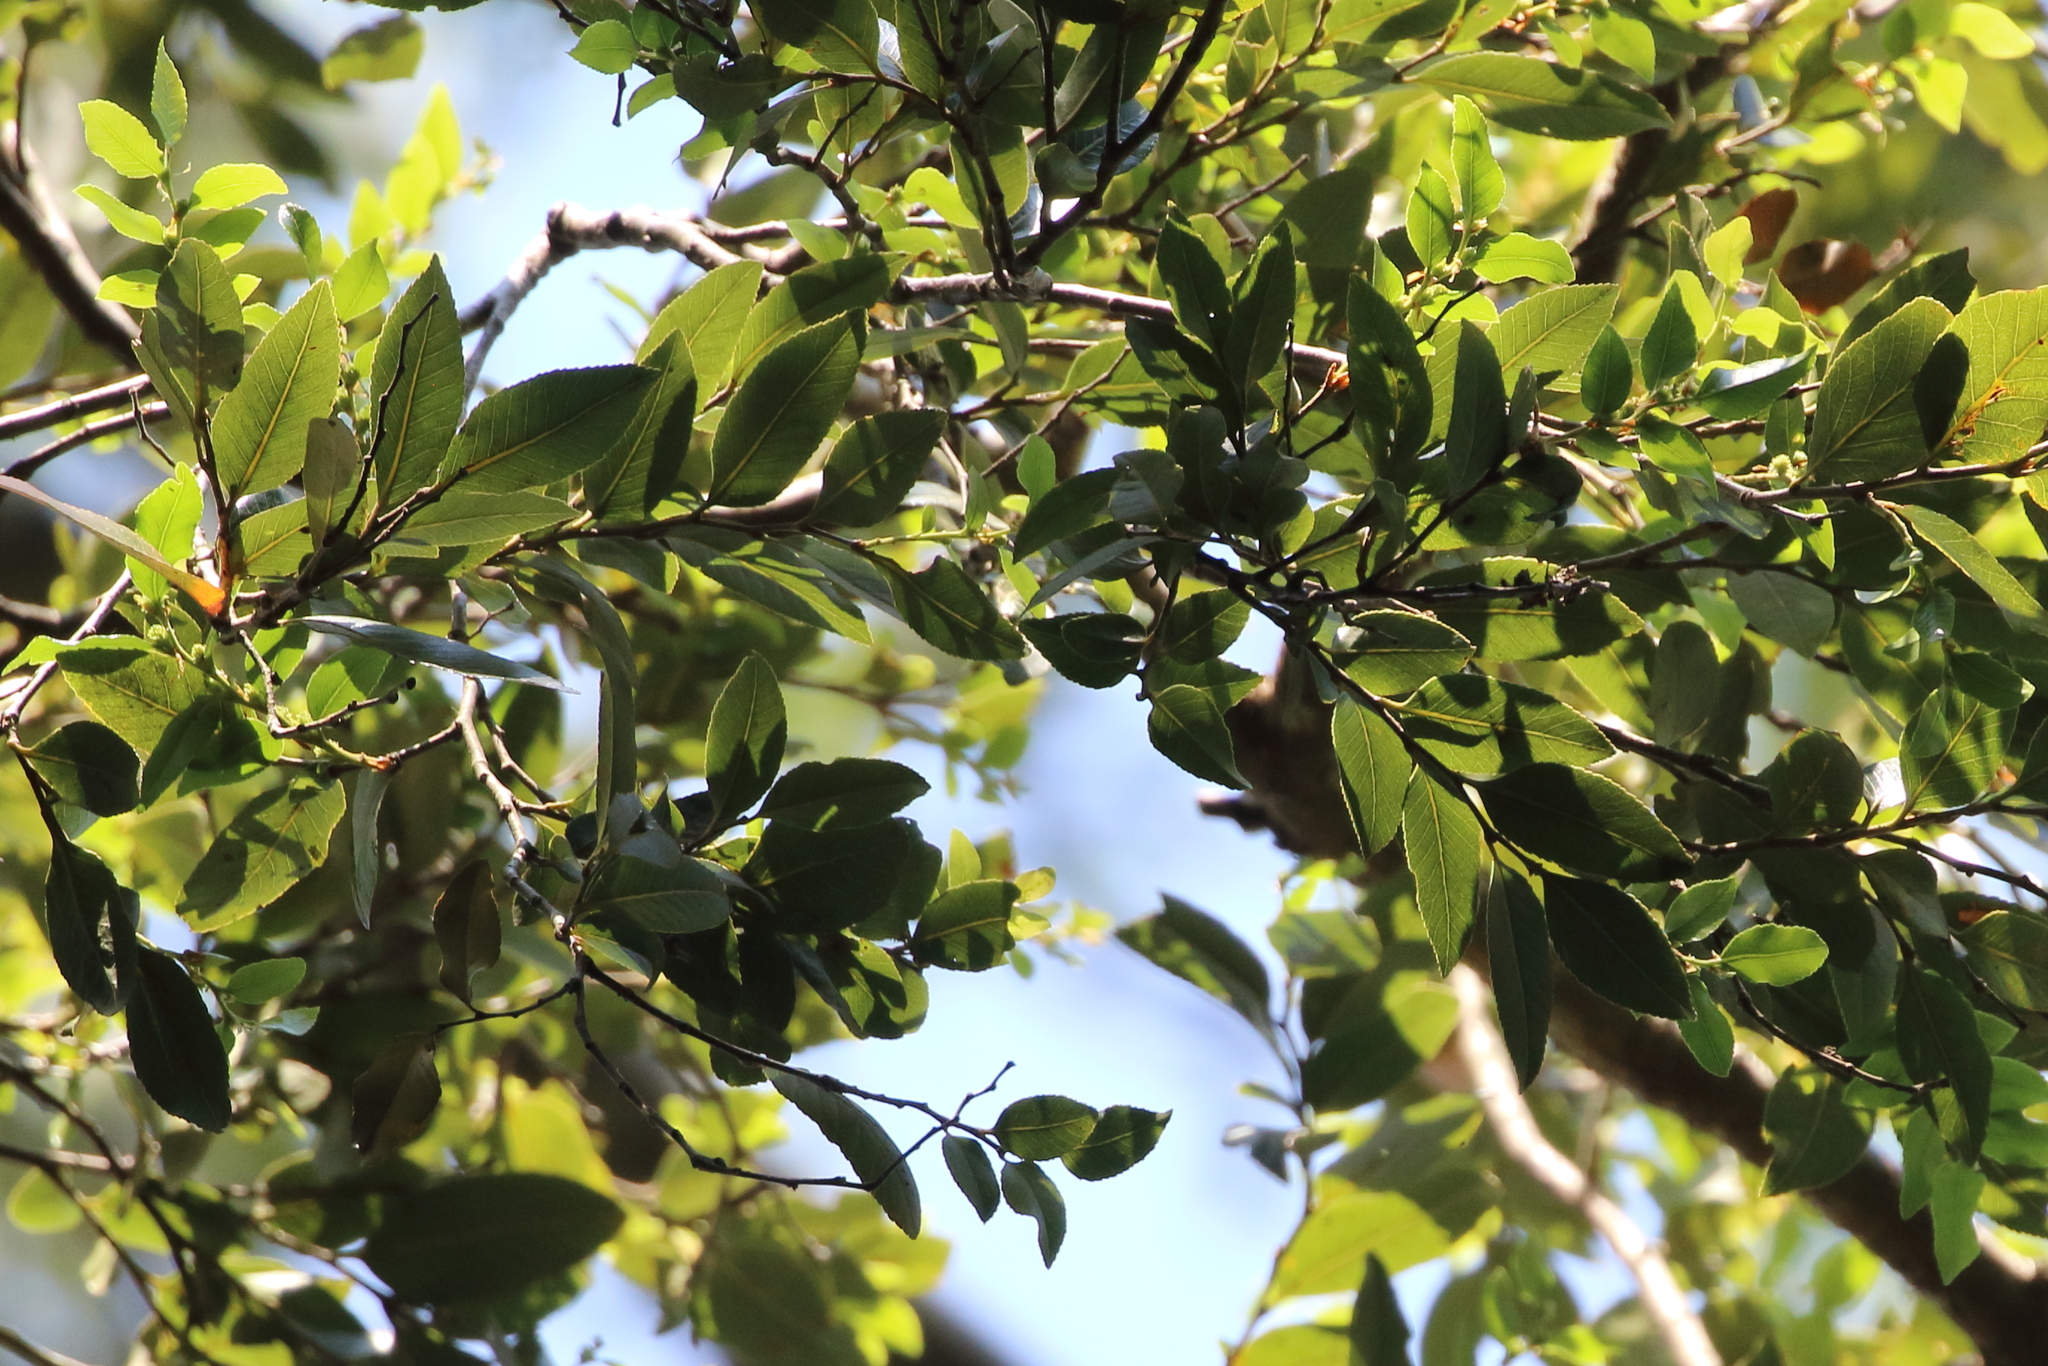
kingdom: Plantae
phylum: Tracheophyta
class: Magnoliopsida
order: Fagales
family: Nothofagaceae
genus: Nothofagus
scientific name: Nothofagus moorei
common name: Antarctic beech
